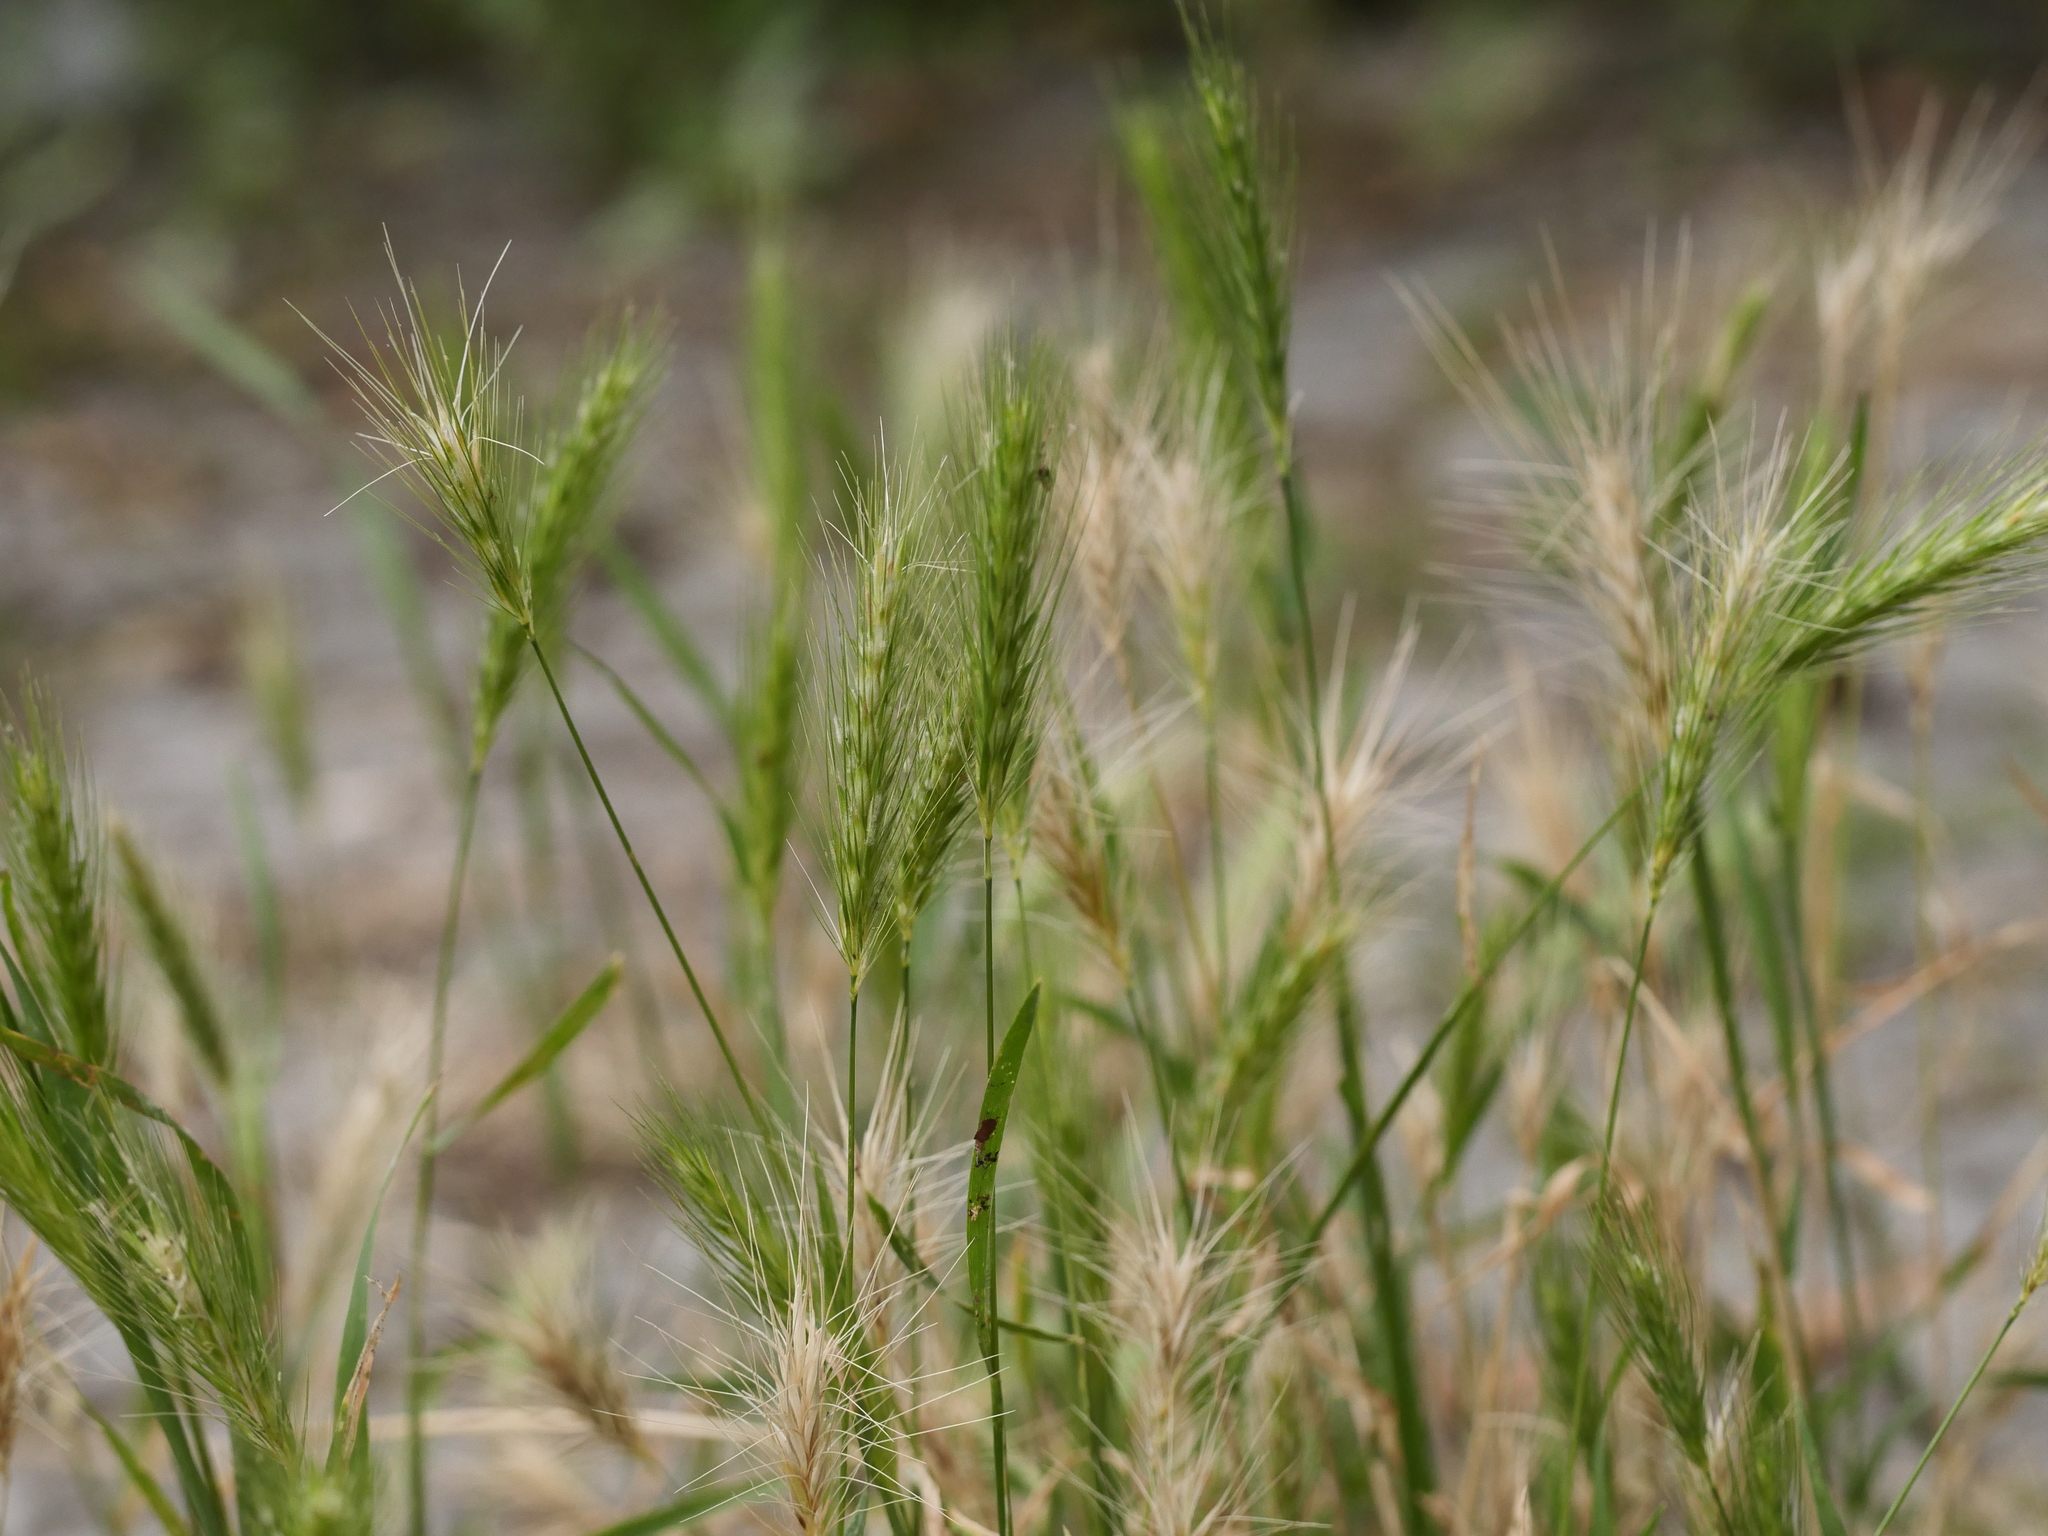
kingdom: Plantae
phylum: Tracheophyta
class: Liliopsida
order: Poales
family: Poaceae
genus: Hordeum
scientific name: Hordeum murinum
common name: Wall barley
